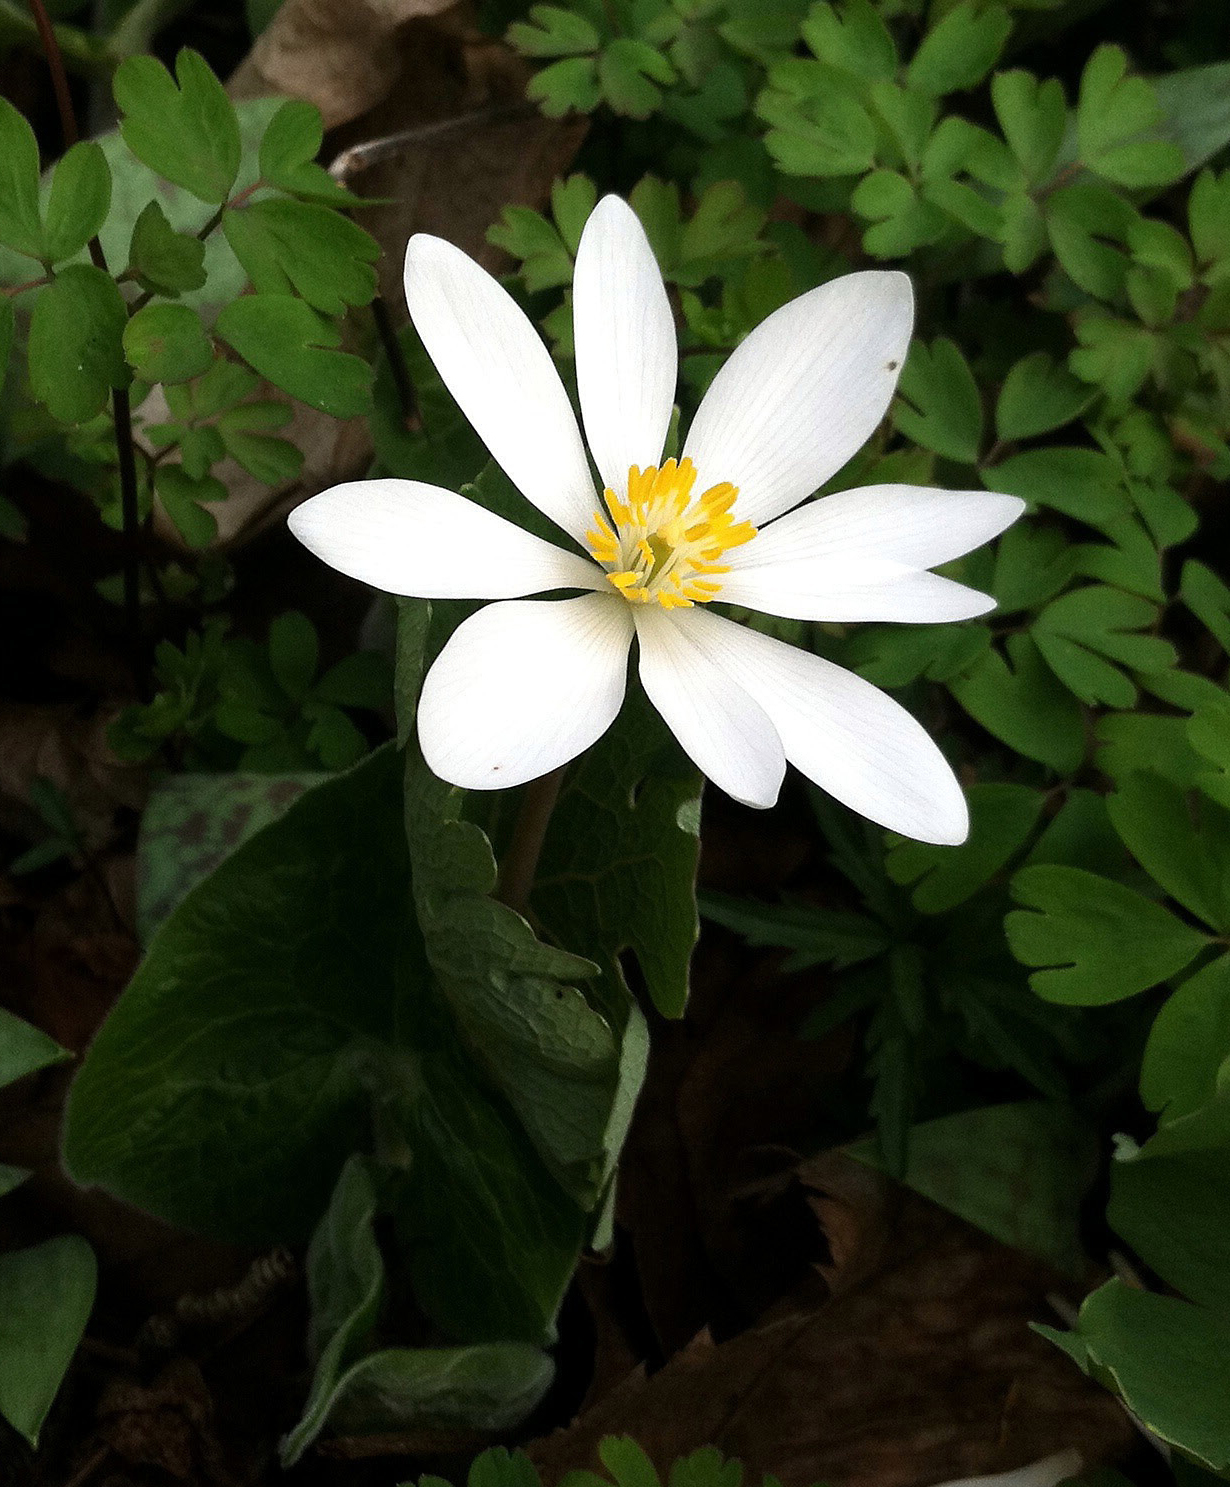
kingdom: Plantae
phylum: Tracheophyta
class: Magnoliopsida
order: Ranunculales
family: Papaveraceae
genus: Sanguinaria
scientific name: Sanguinaria canadensis
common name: Bloodroot
